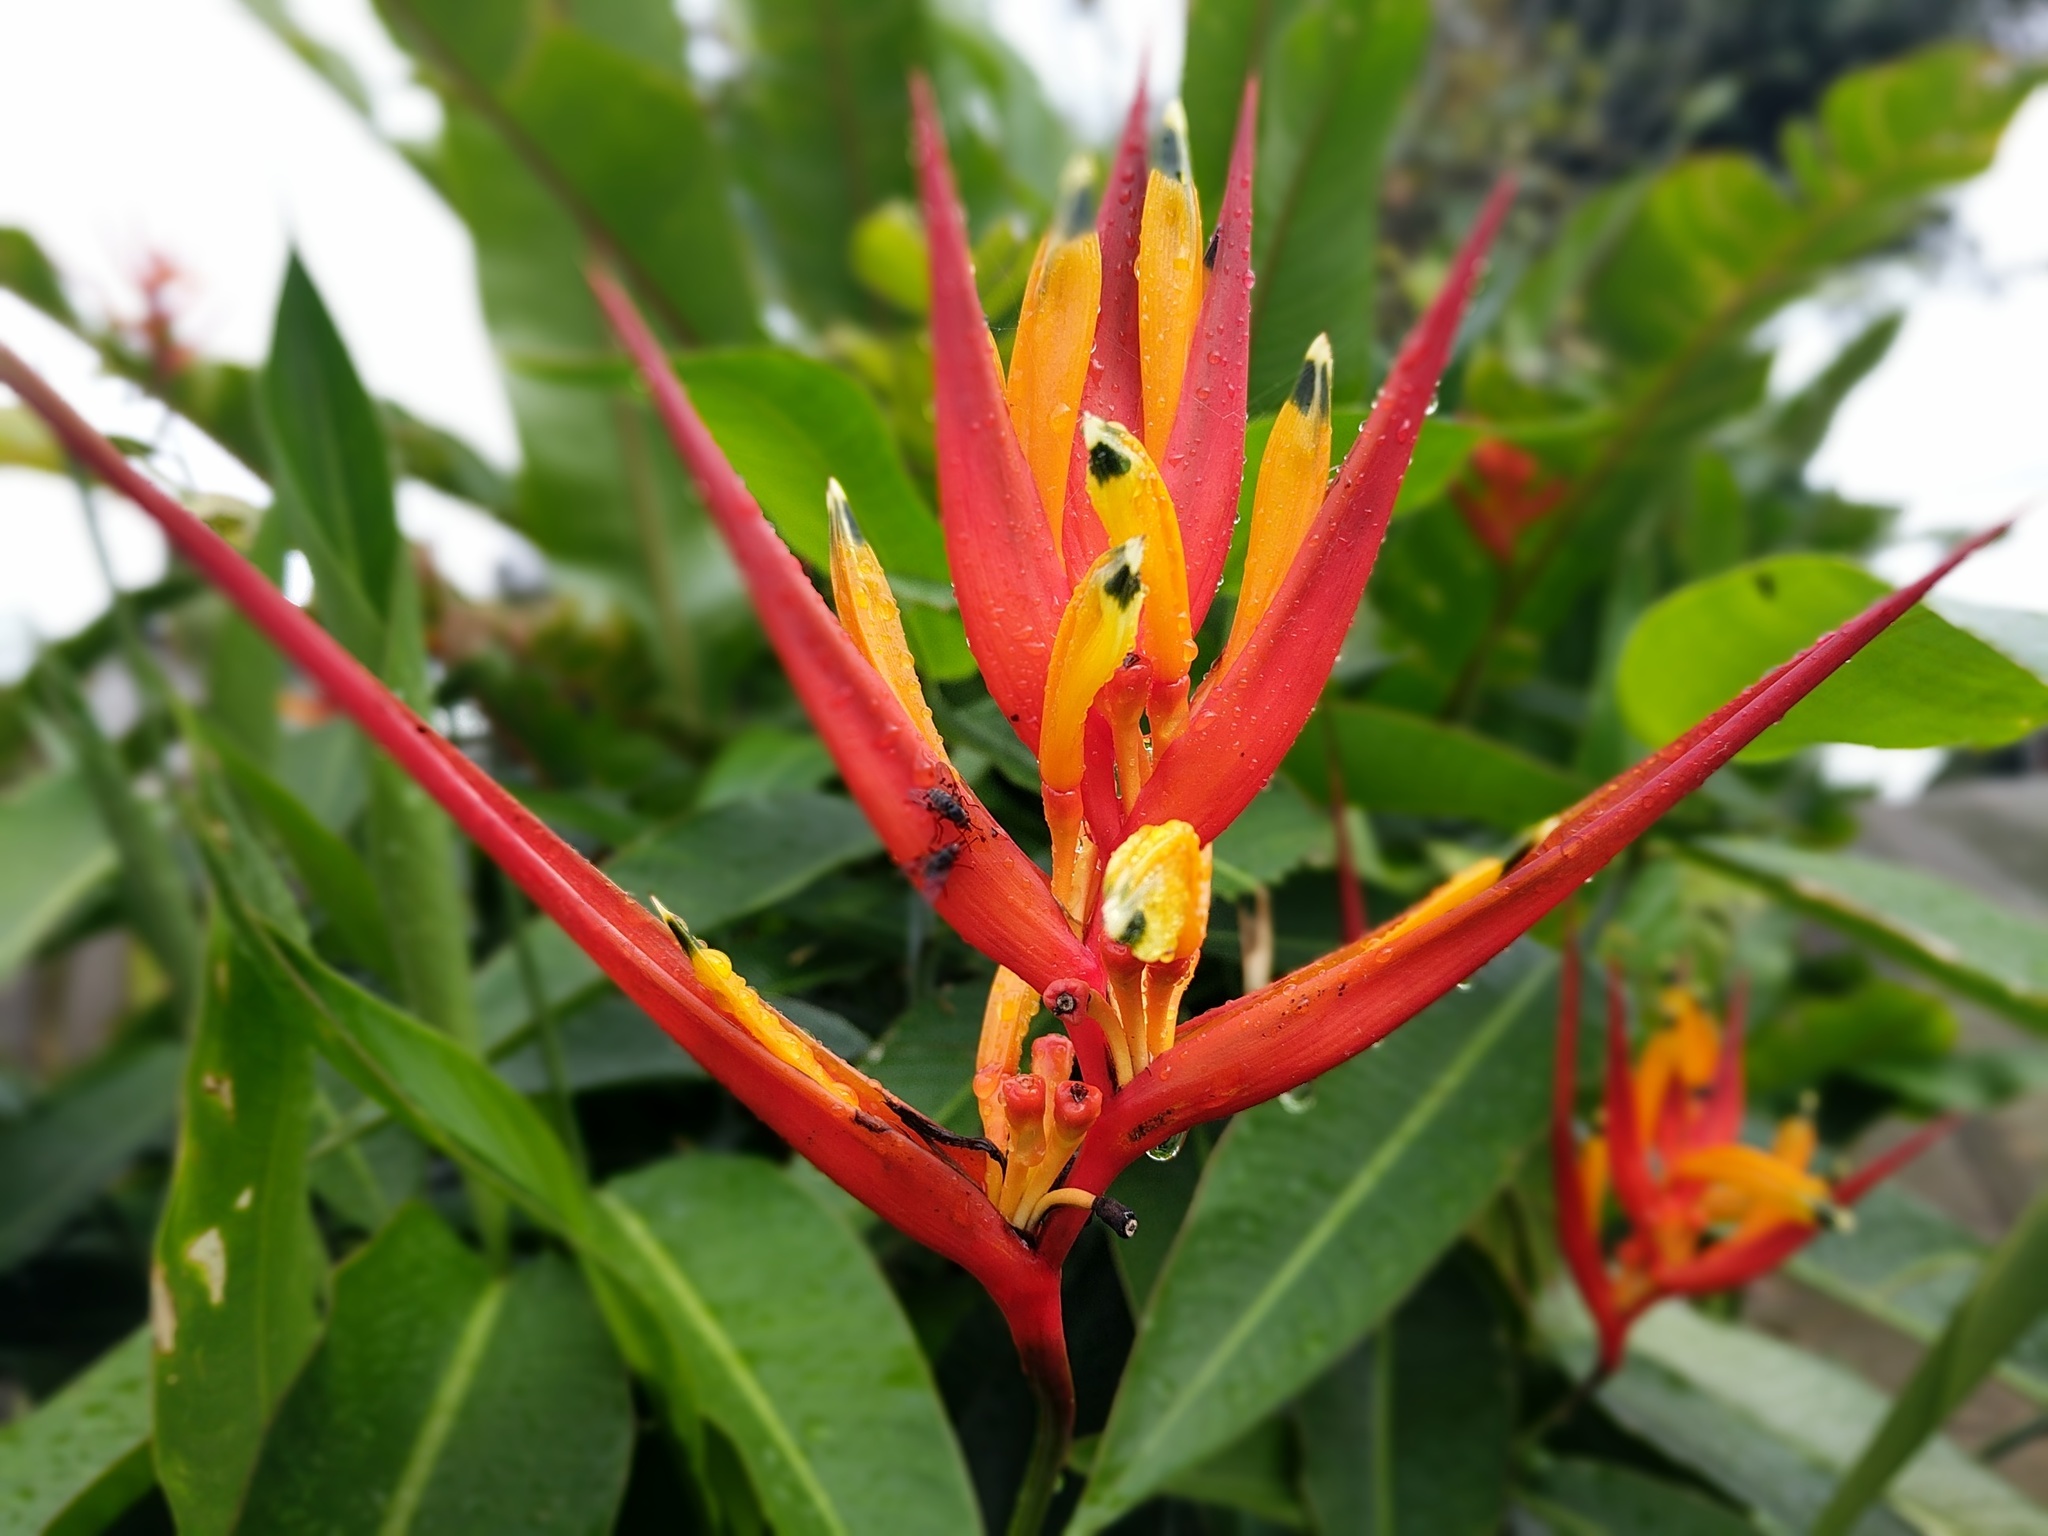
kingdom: Plantae
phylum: Tracheophyta
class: Liliopsida
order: Zingiberales
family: Heliconiaceae
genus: Heliconia
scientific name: Heliconia hirsuta
